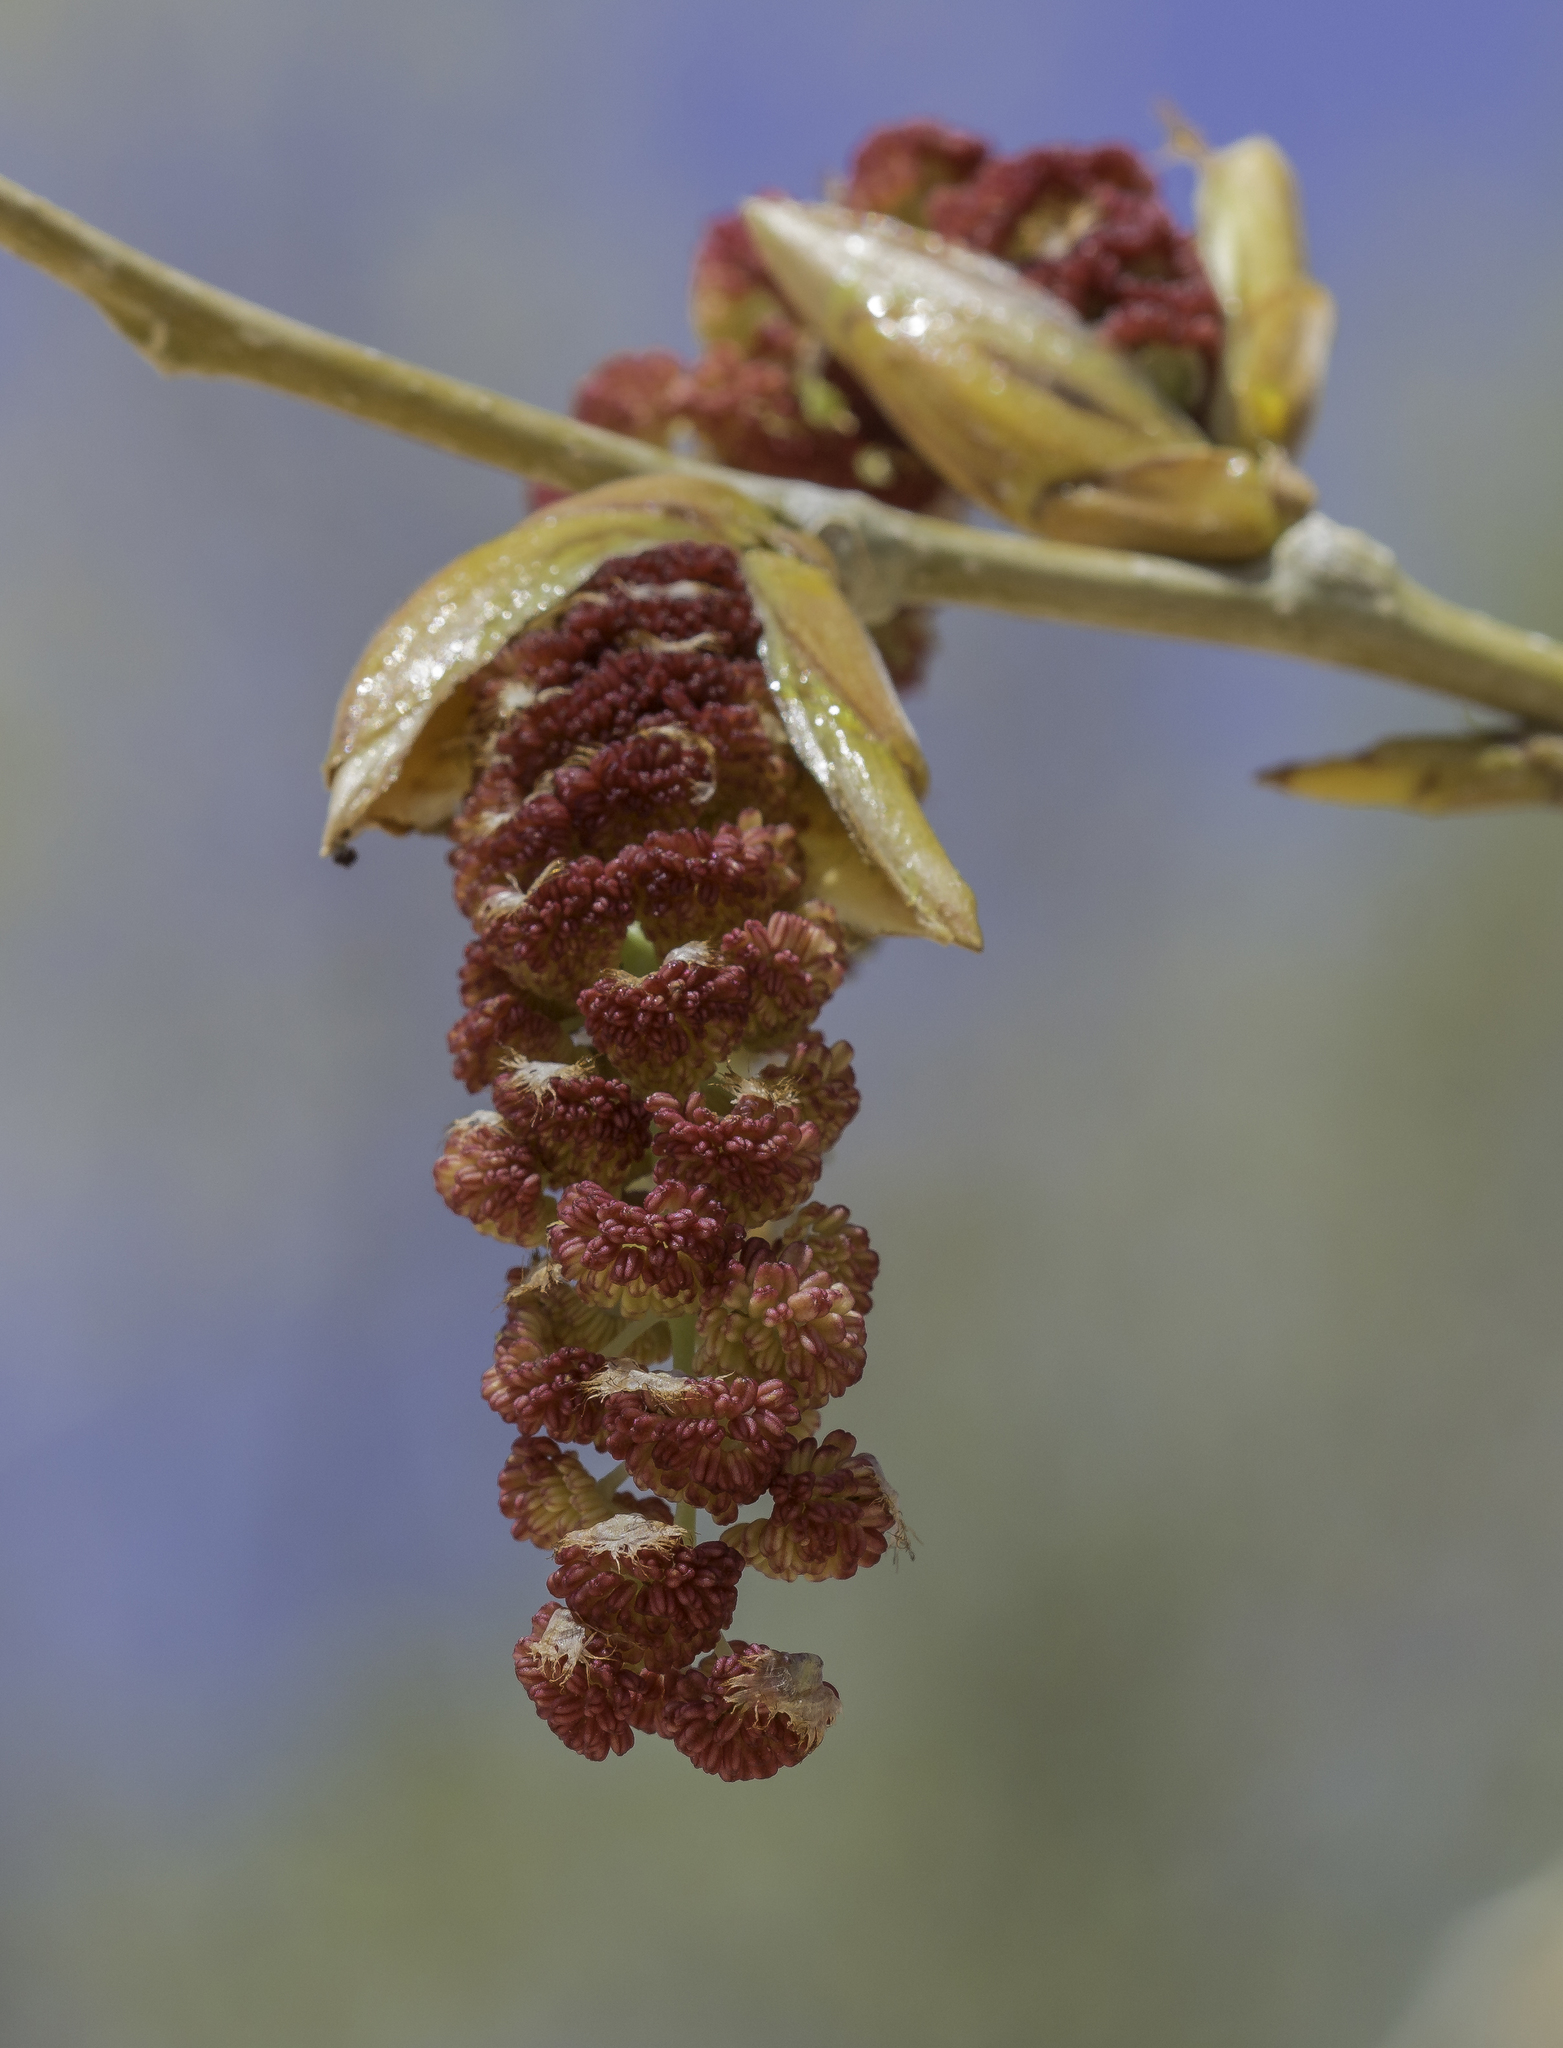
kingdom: Plantae
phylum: Tracheophyta
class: Magnoliopsida
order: Malpighiales
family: Salicaceae
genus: Populus
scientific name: Populus deltoides
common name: Eastern cottonwood
